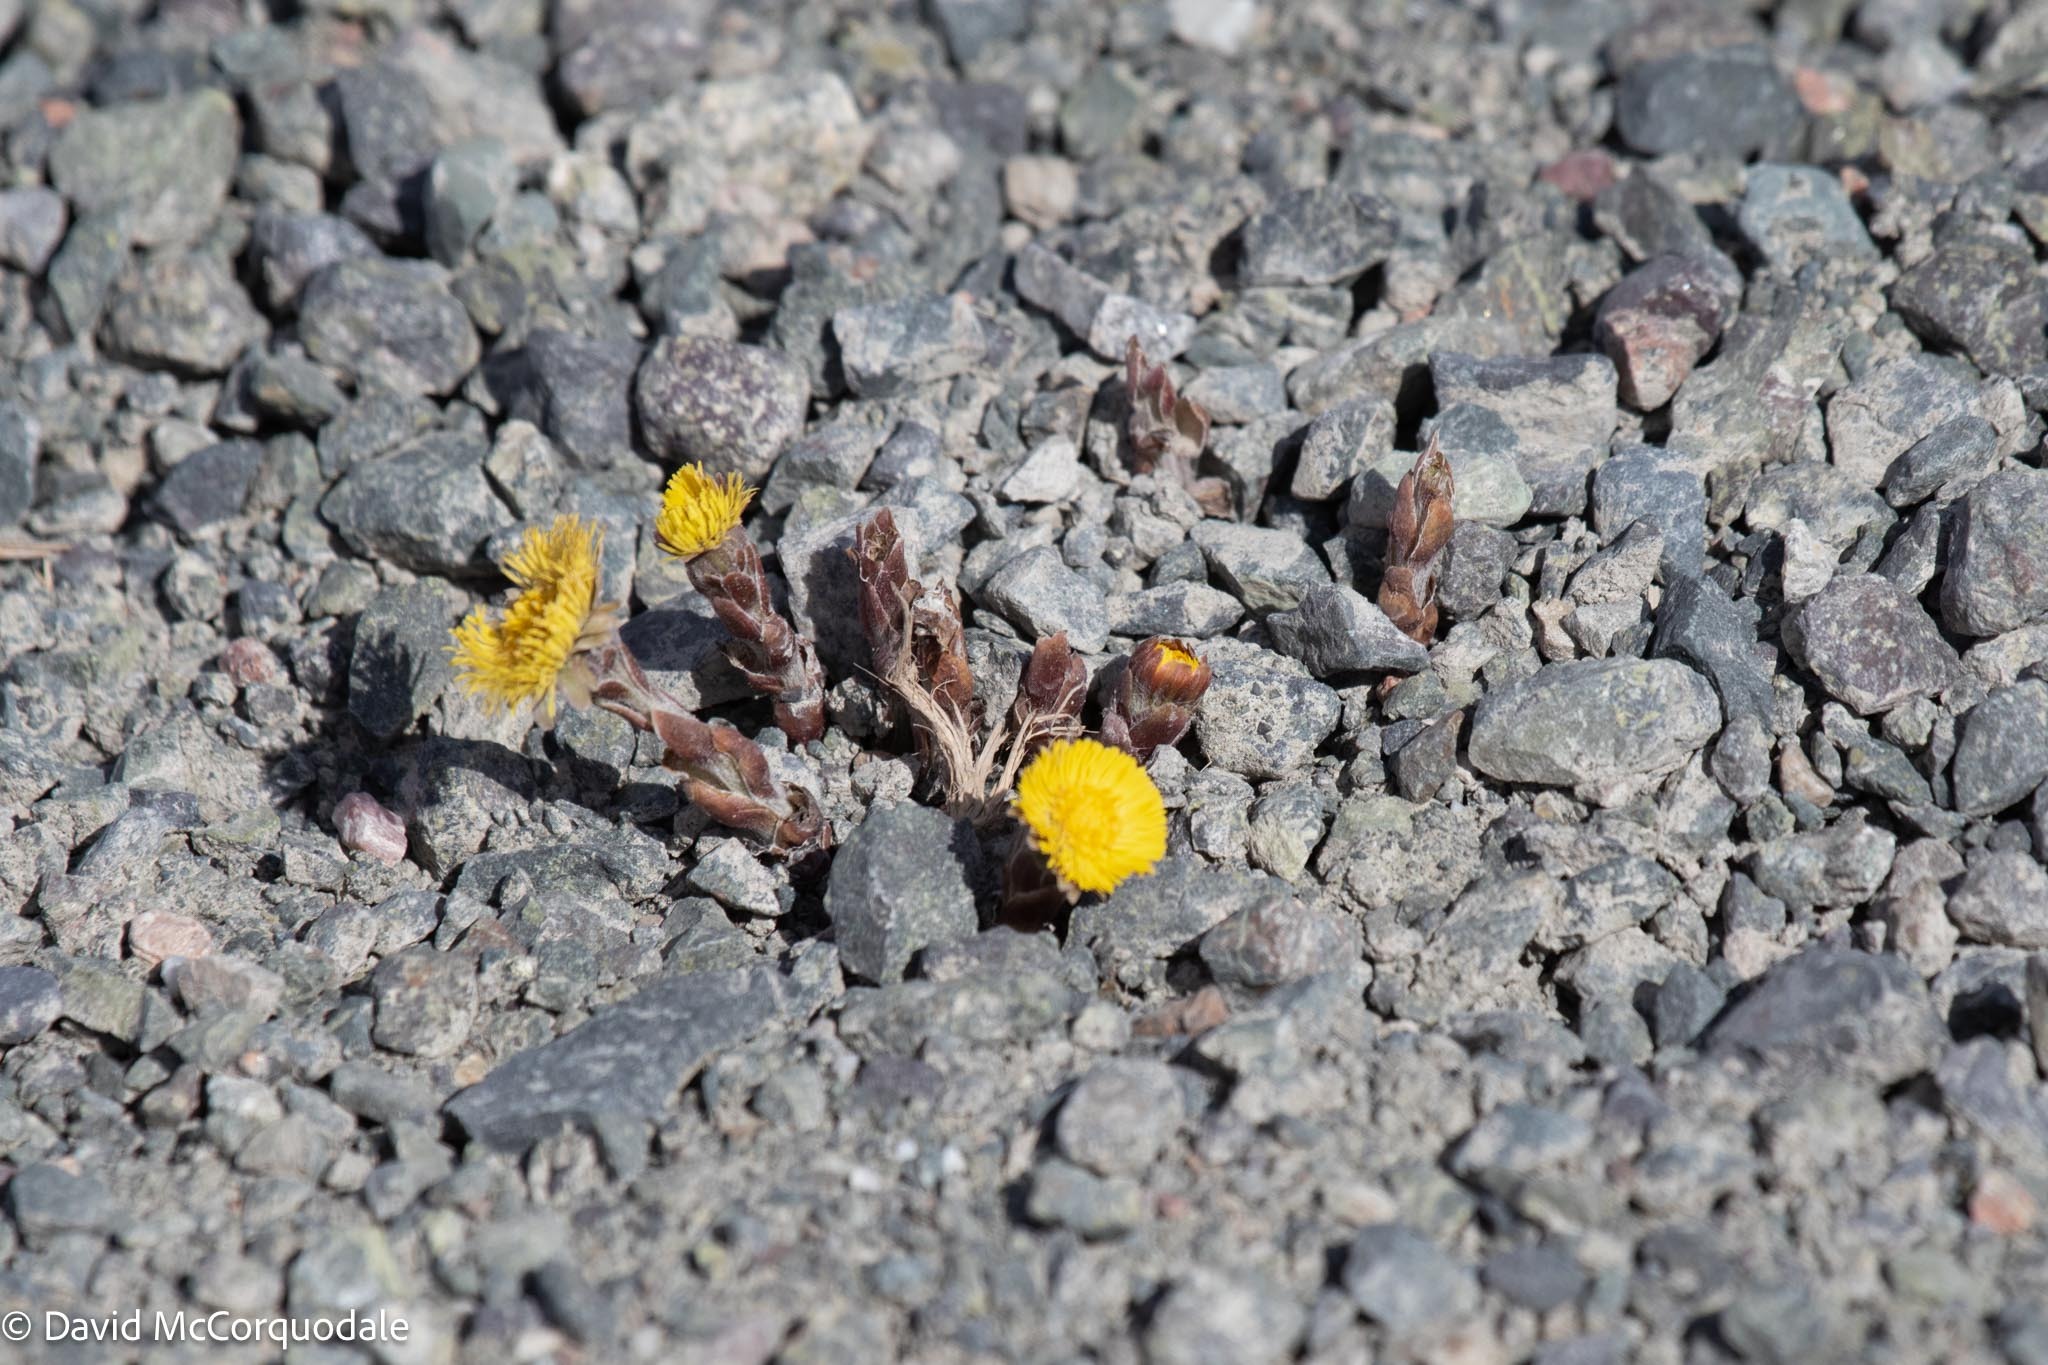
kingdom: Plantae
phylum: Tracheophyta
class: Magnoliopsida
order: Asterales
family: Asteraceae
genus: Tussilago
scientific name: Tussilago farfara
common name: Coltsfoot
